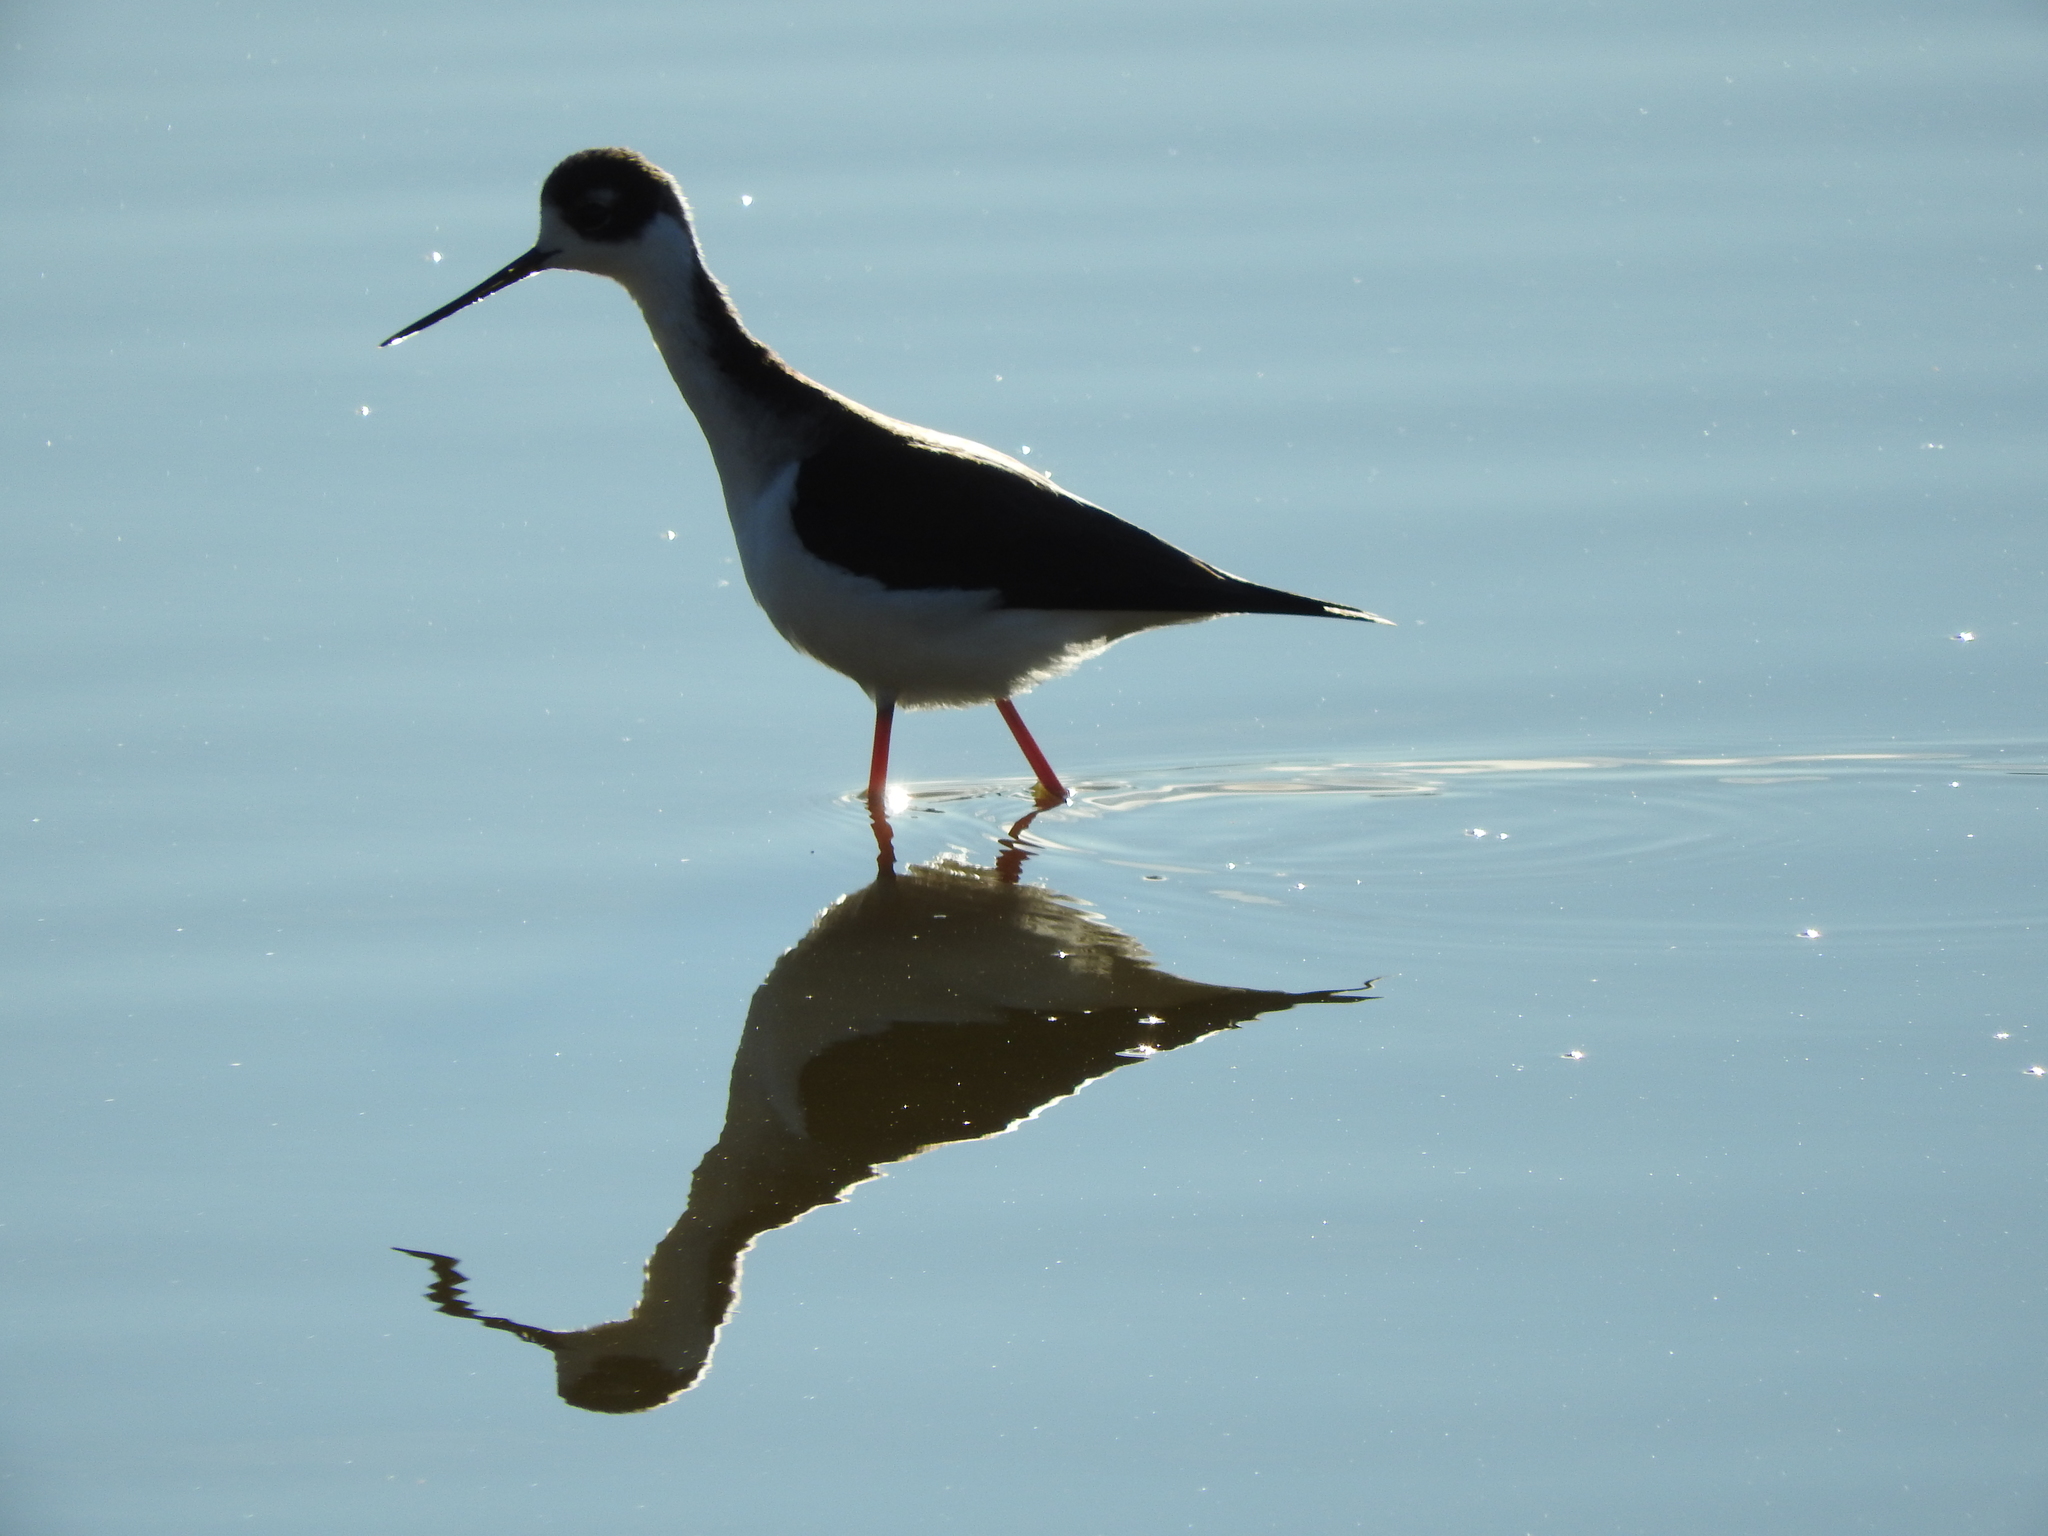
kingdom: Animalia
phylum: Chordata
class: Aves
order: Charadriiformes
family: Recurvirostridae
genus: Himantopus
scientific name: Himantopus mexicanus
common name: Black-necked stilt
